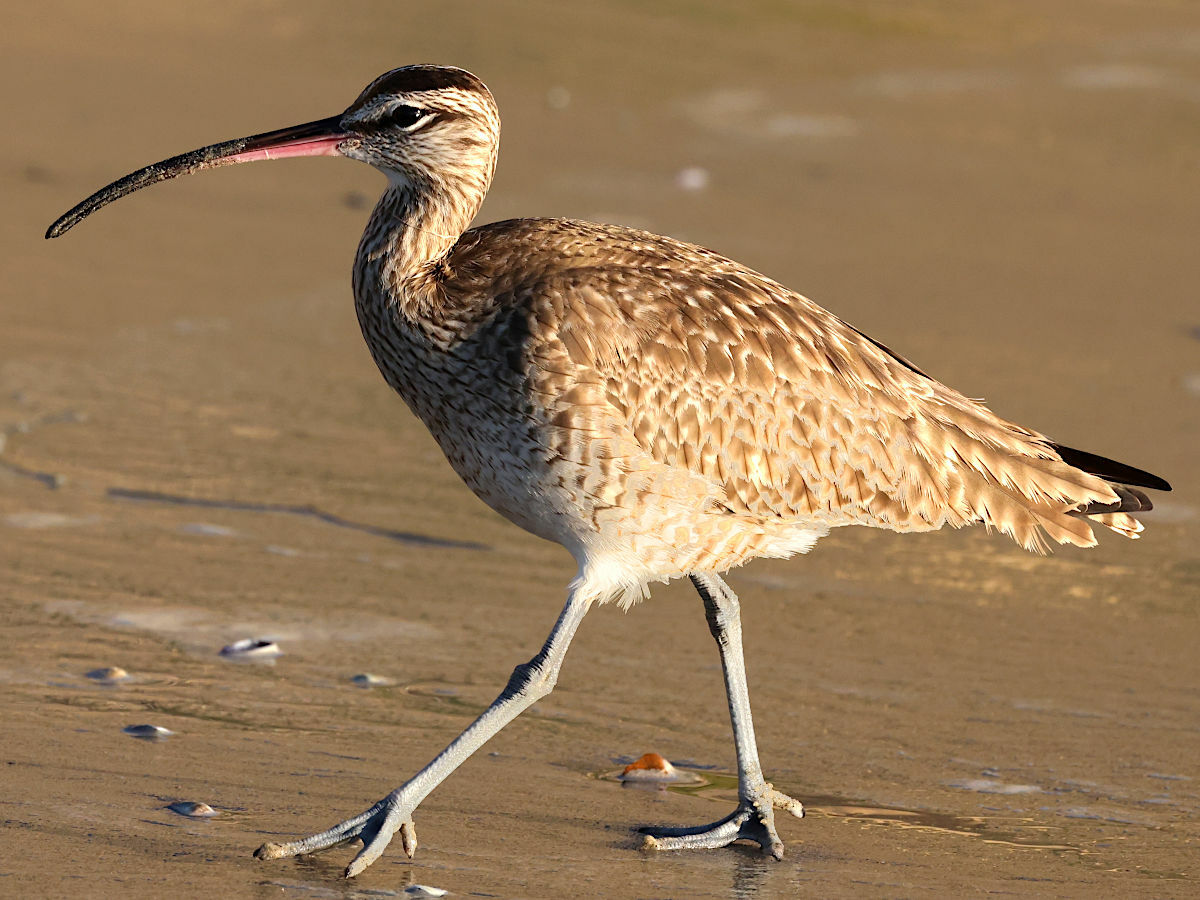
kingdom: Animalia
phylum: Chordata
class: Aves
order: Charadriiformes
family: Scolopacidae
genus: Numenius
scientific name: Numenius phaeopus
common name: Whimbrel
